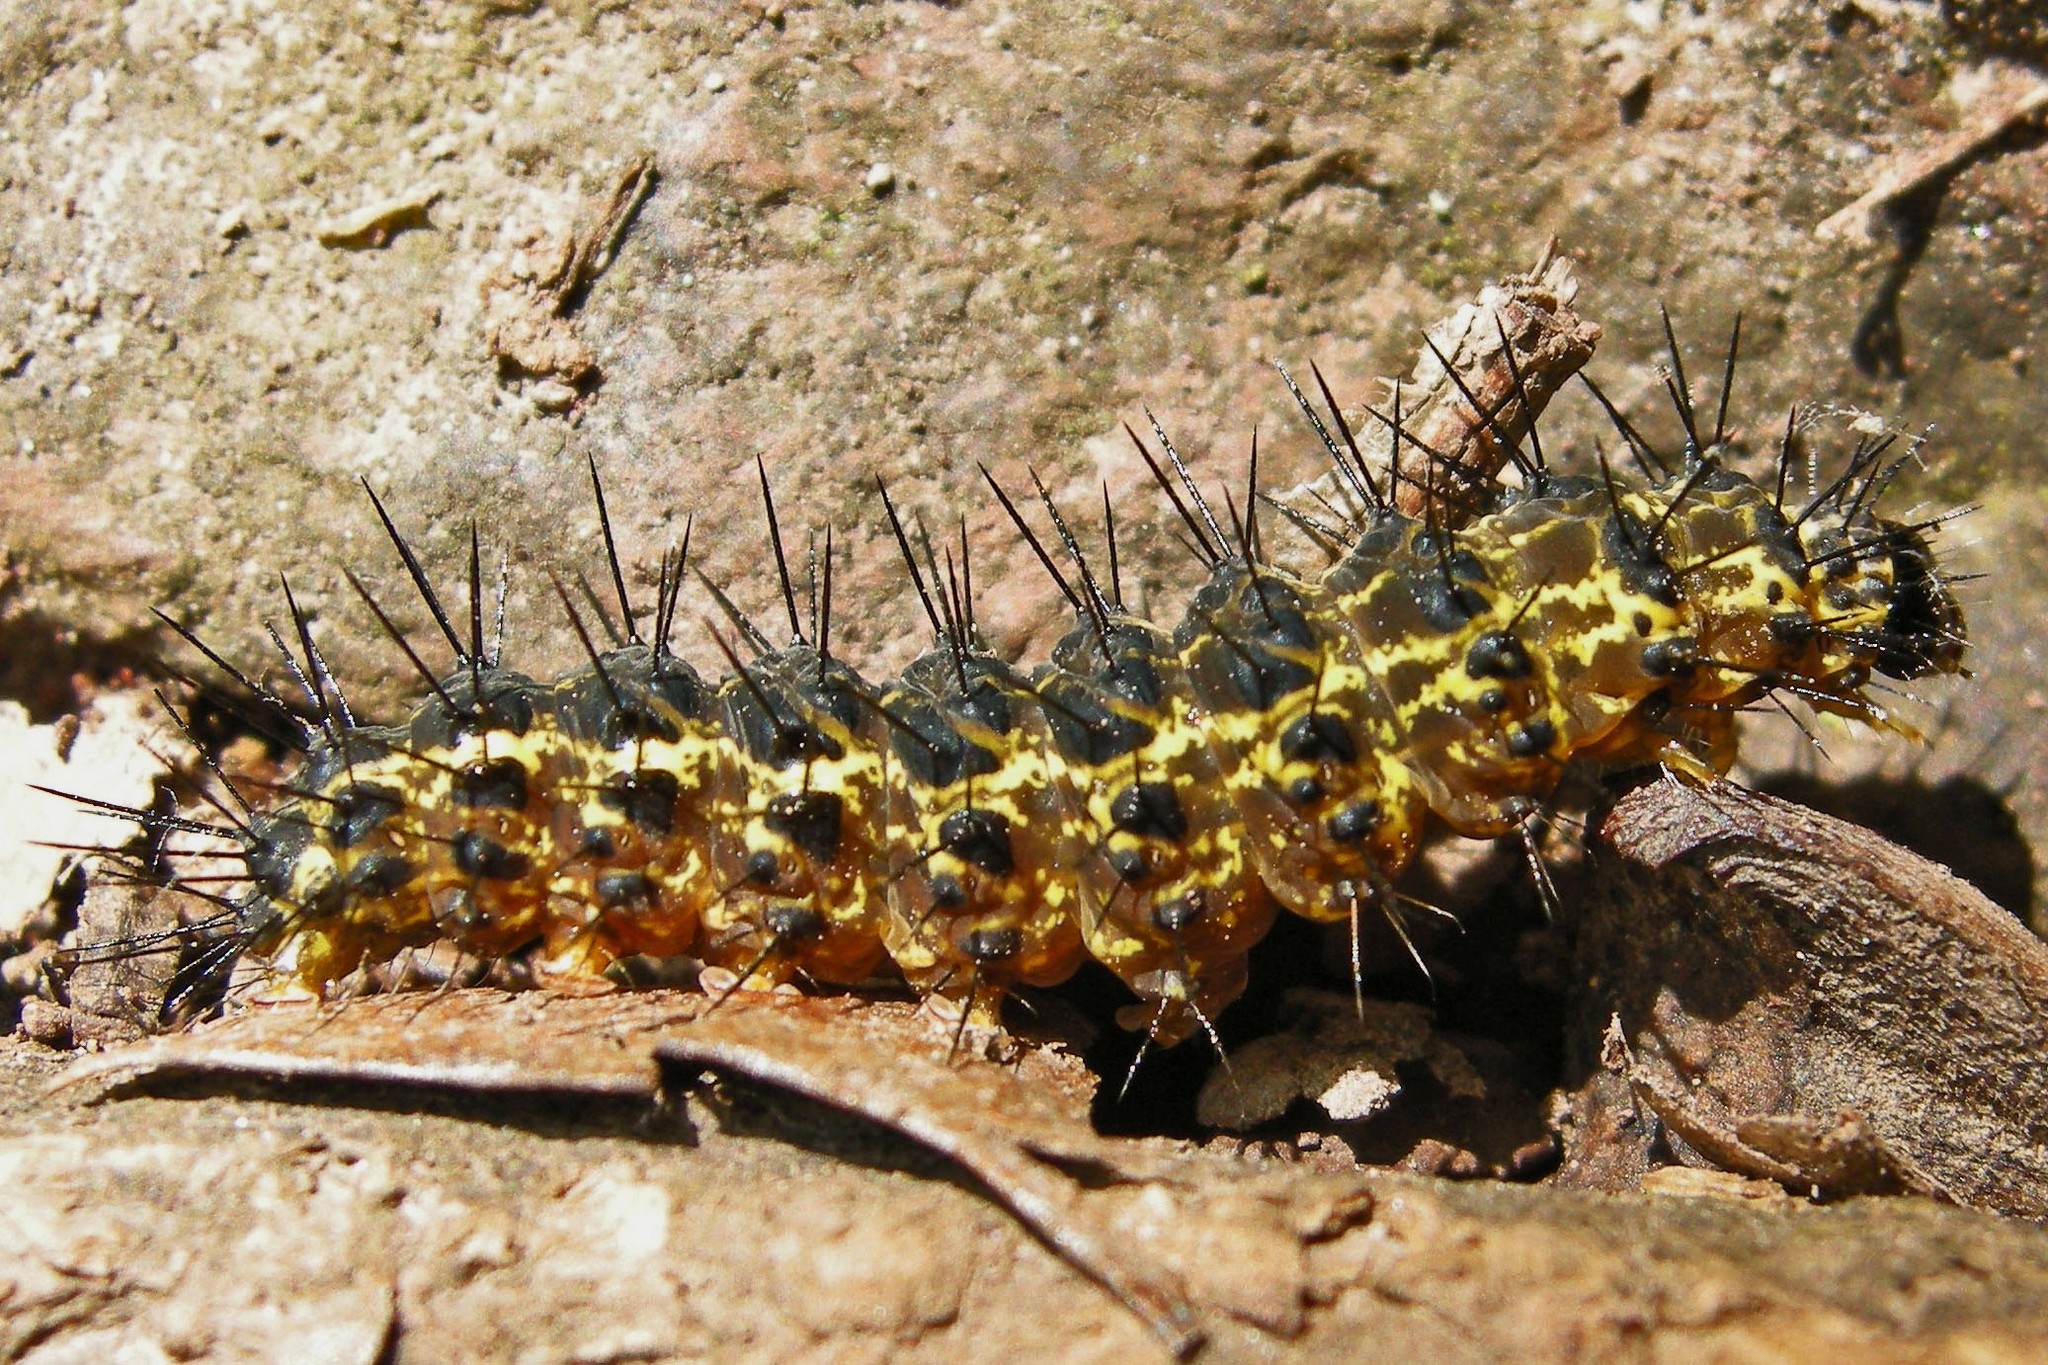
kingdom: Animalia
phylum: Arthropoda
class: Insecta
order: Lepidoptera
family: Erebidae
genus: Hypoprepia
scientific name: Hypoprepia fucosa
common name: Painted lichen moth
